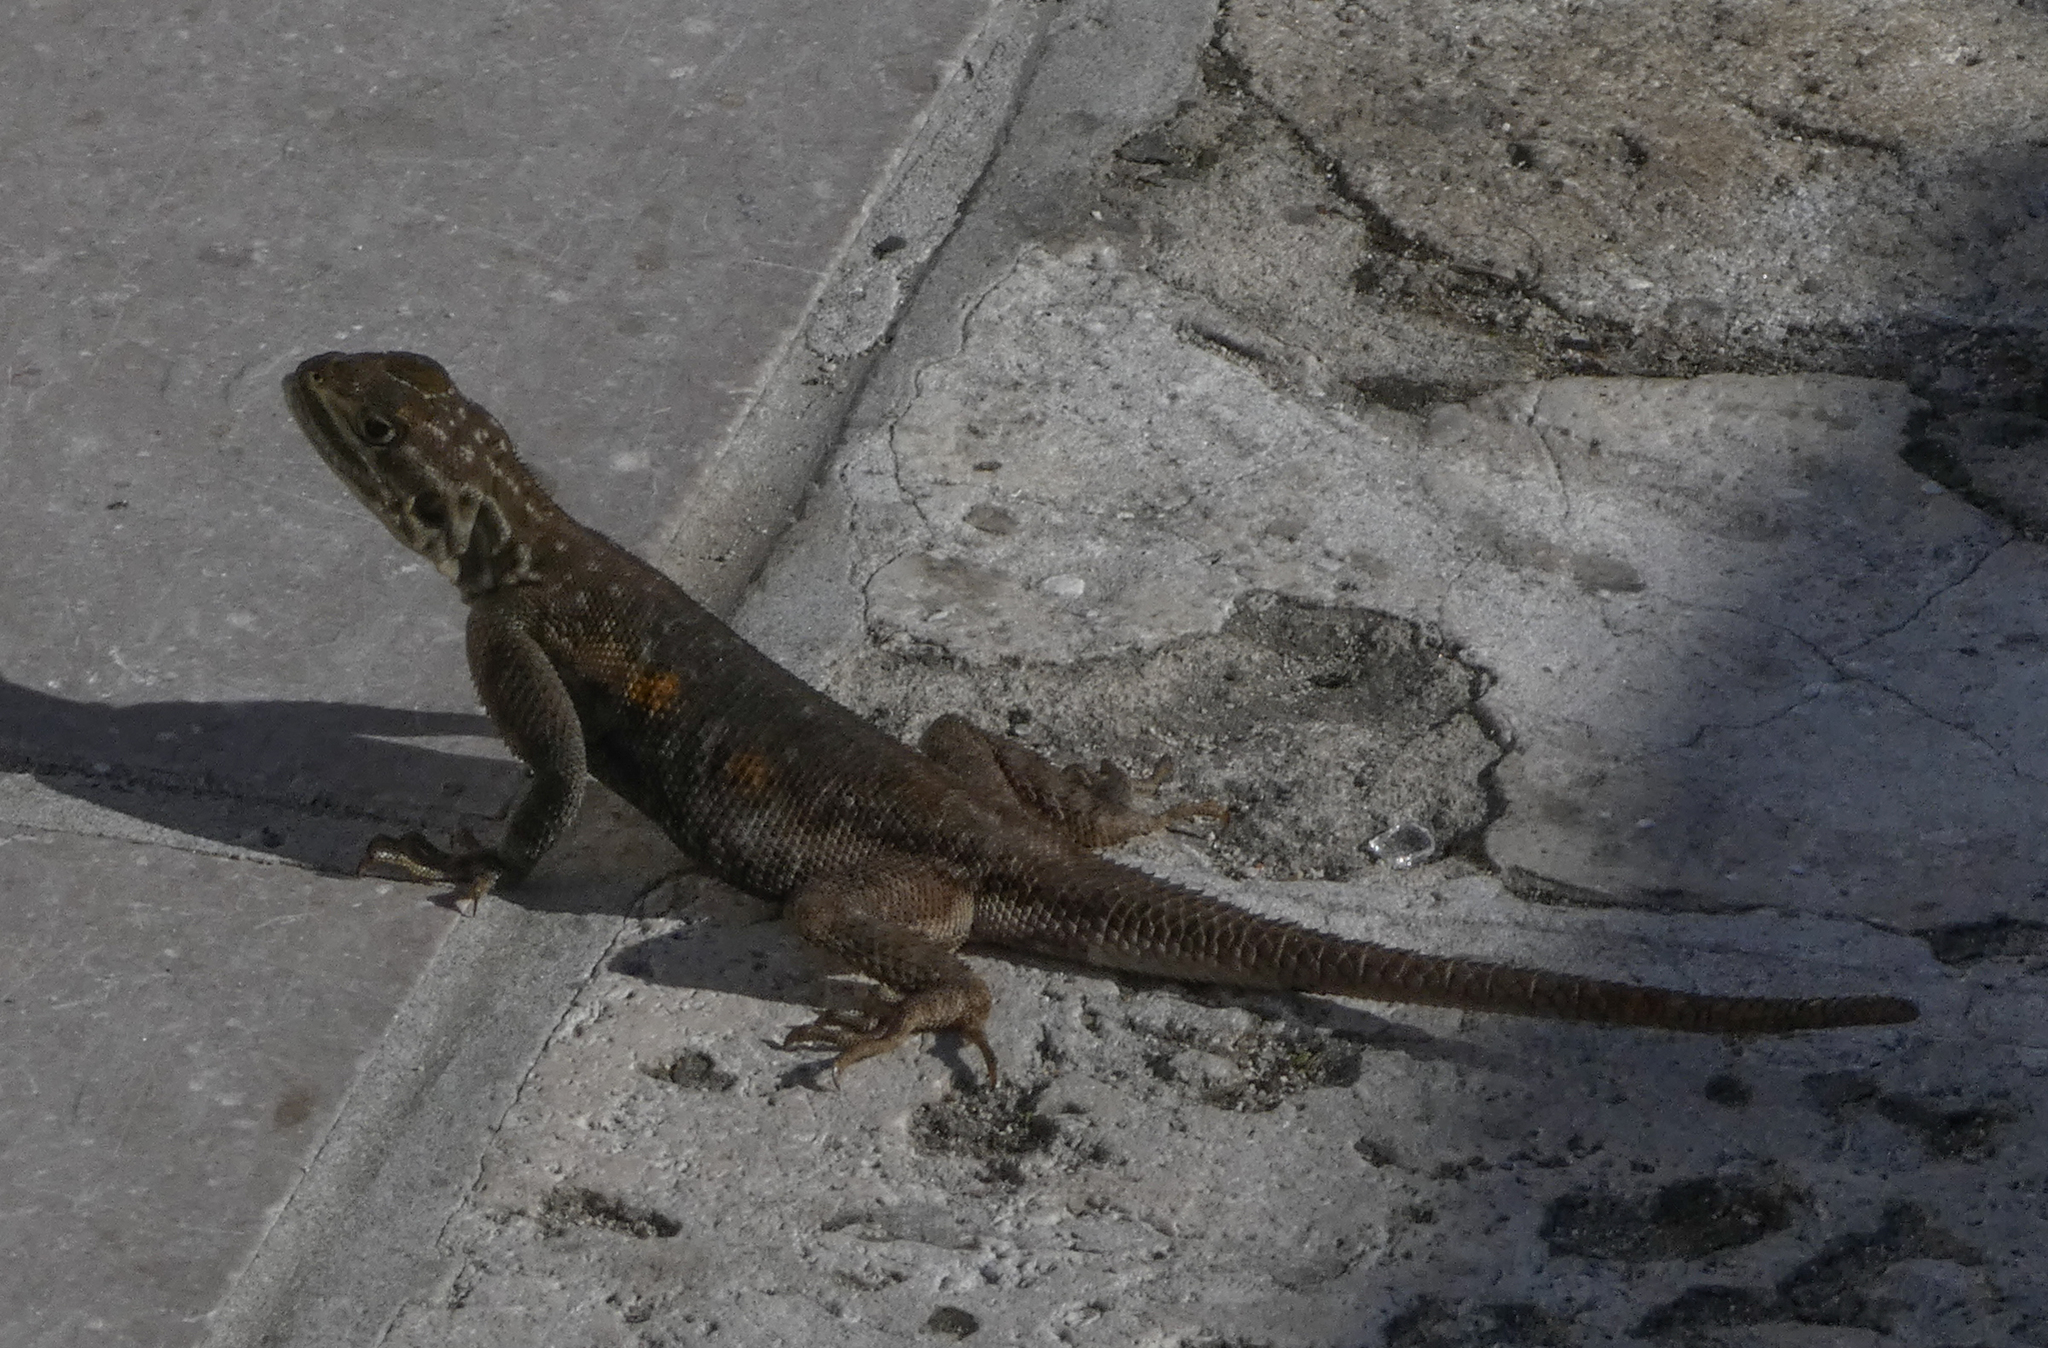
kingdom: Animalia
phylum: Chordata
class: Squamata
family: Agamidae
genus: Agama
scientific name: Agama picticauda
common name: Red-headed agama
